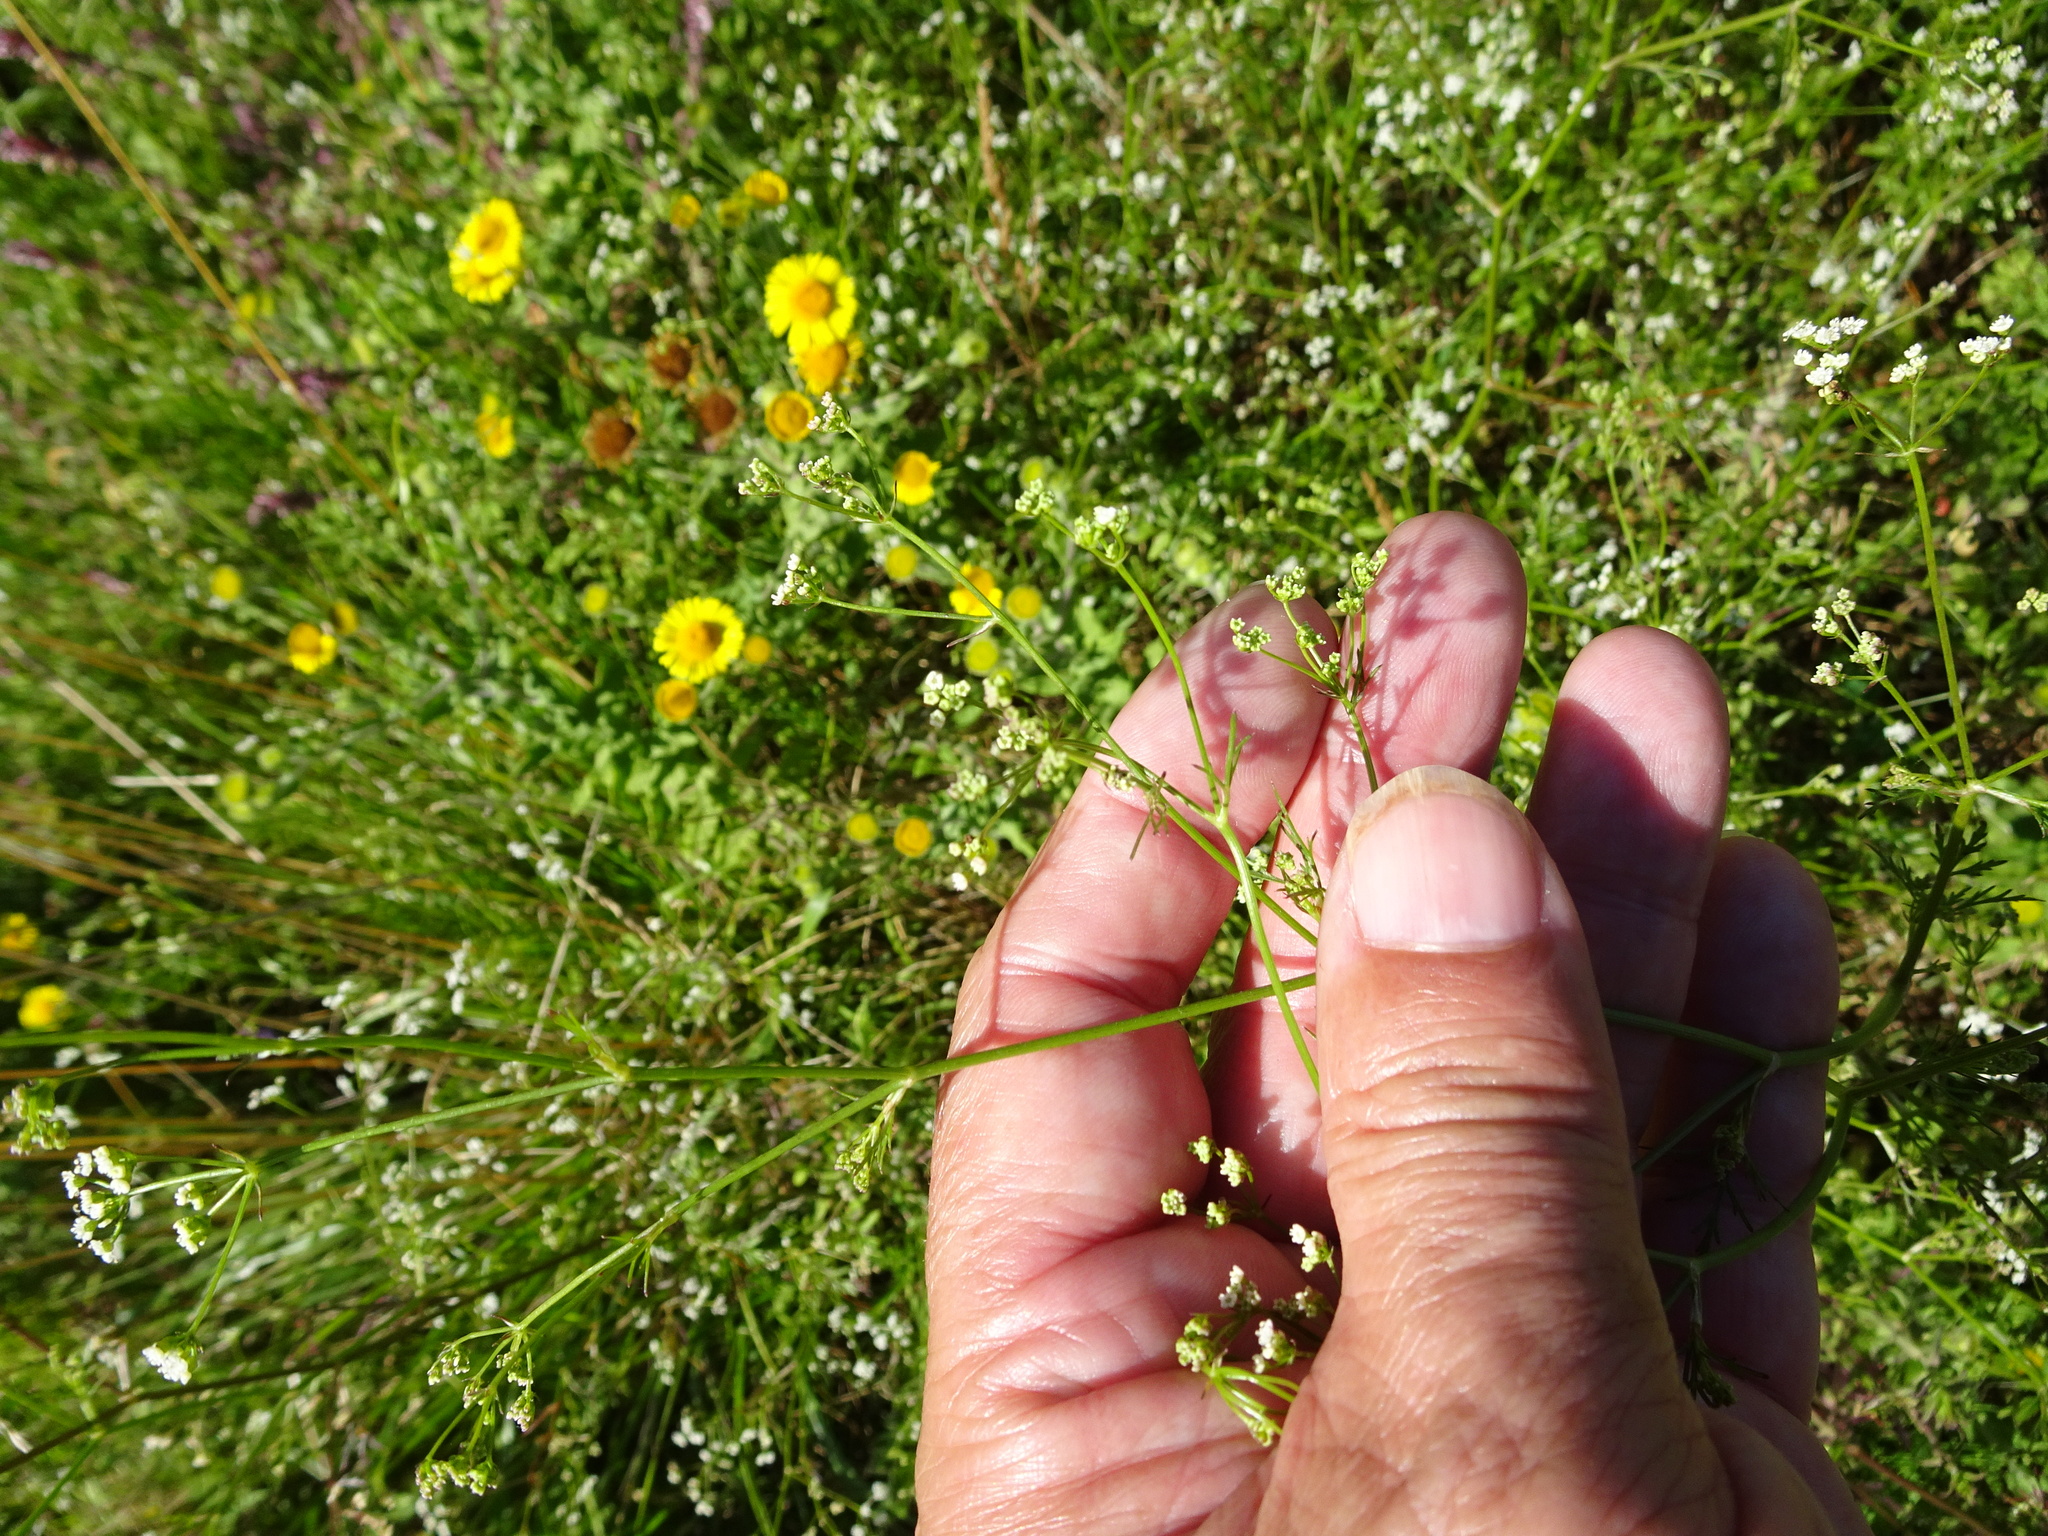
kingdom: Plantae
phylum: Tracheophyta
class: Magnoliopsida
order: Apiales
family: Apiaceae
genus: Sison
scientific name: Sison amomum
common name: Stone-parsley
